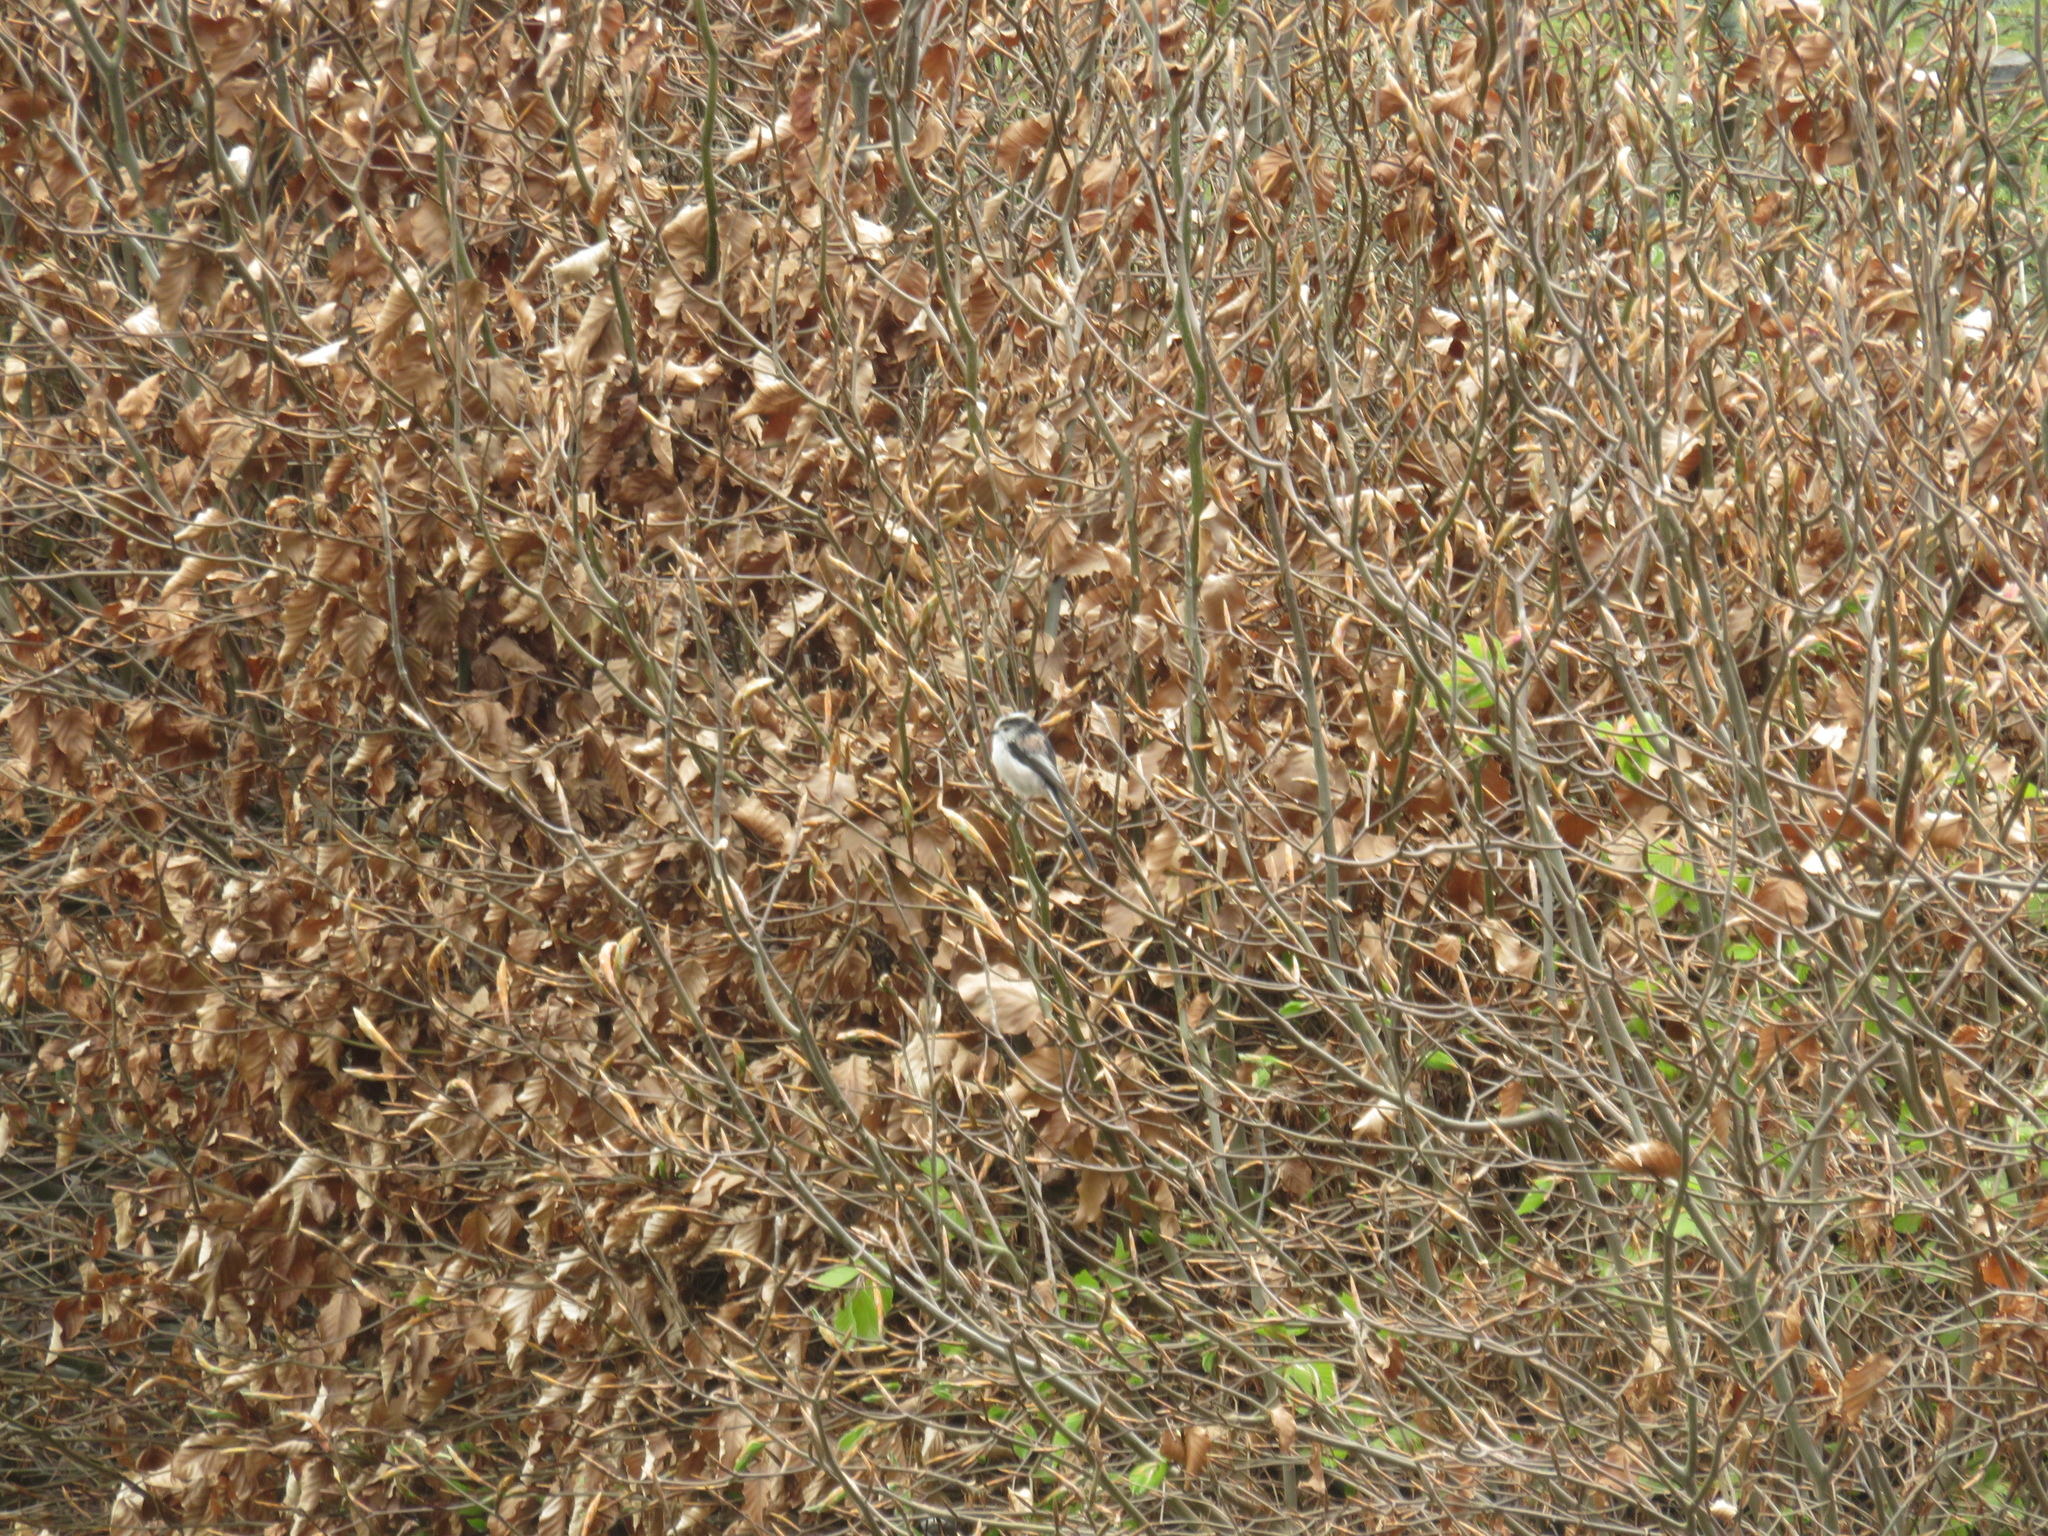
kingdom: Animalia
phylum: Chordata
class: Aves
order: Passeriformes
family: Aegithalidae
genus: Aegithalos
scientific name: Aegithalos caudatus
